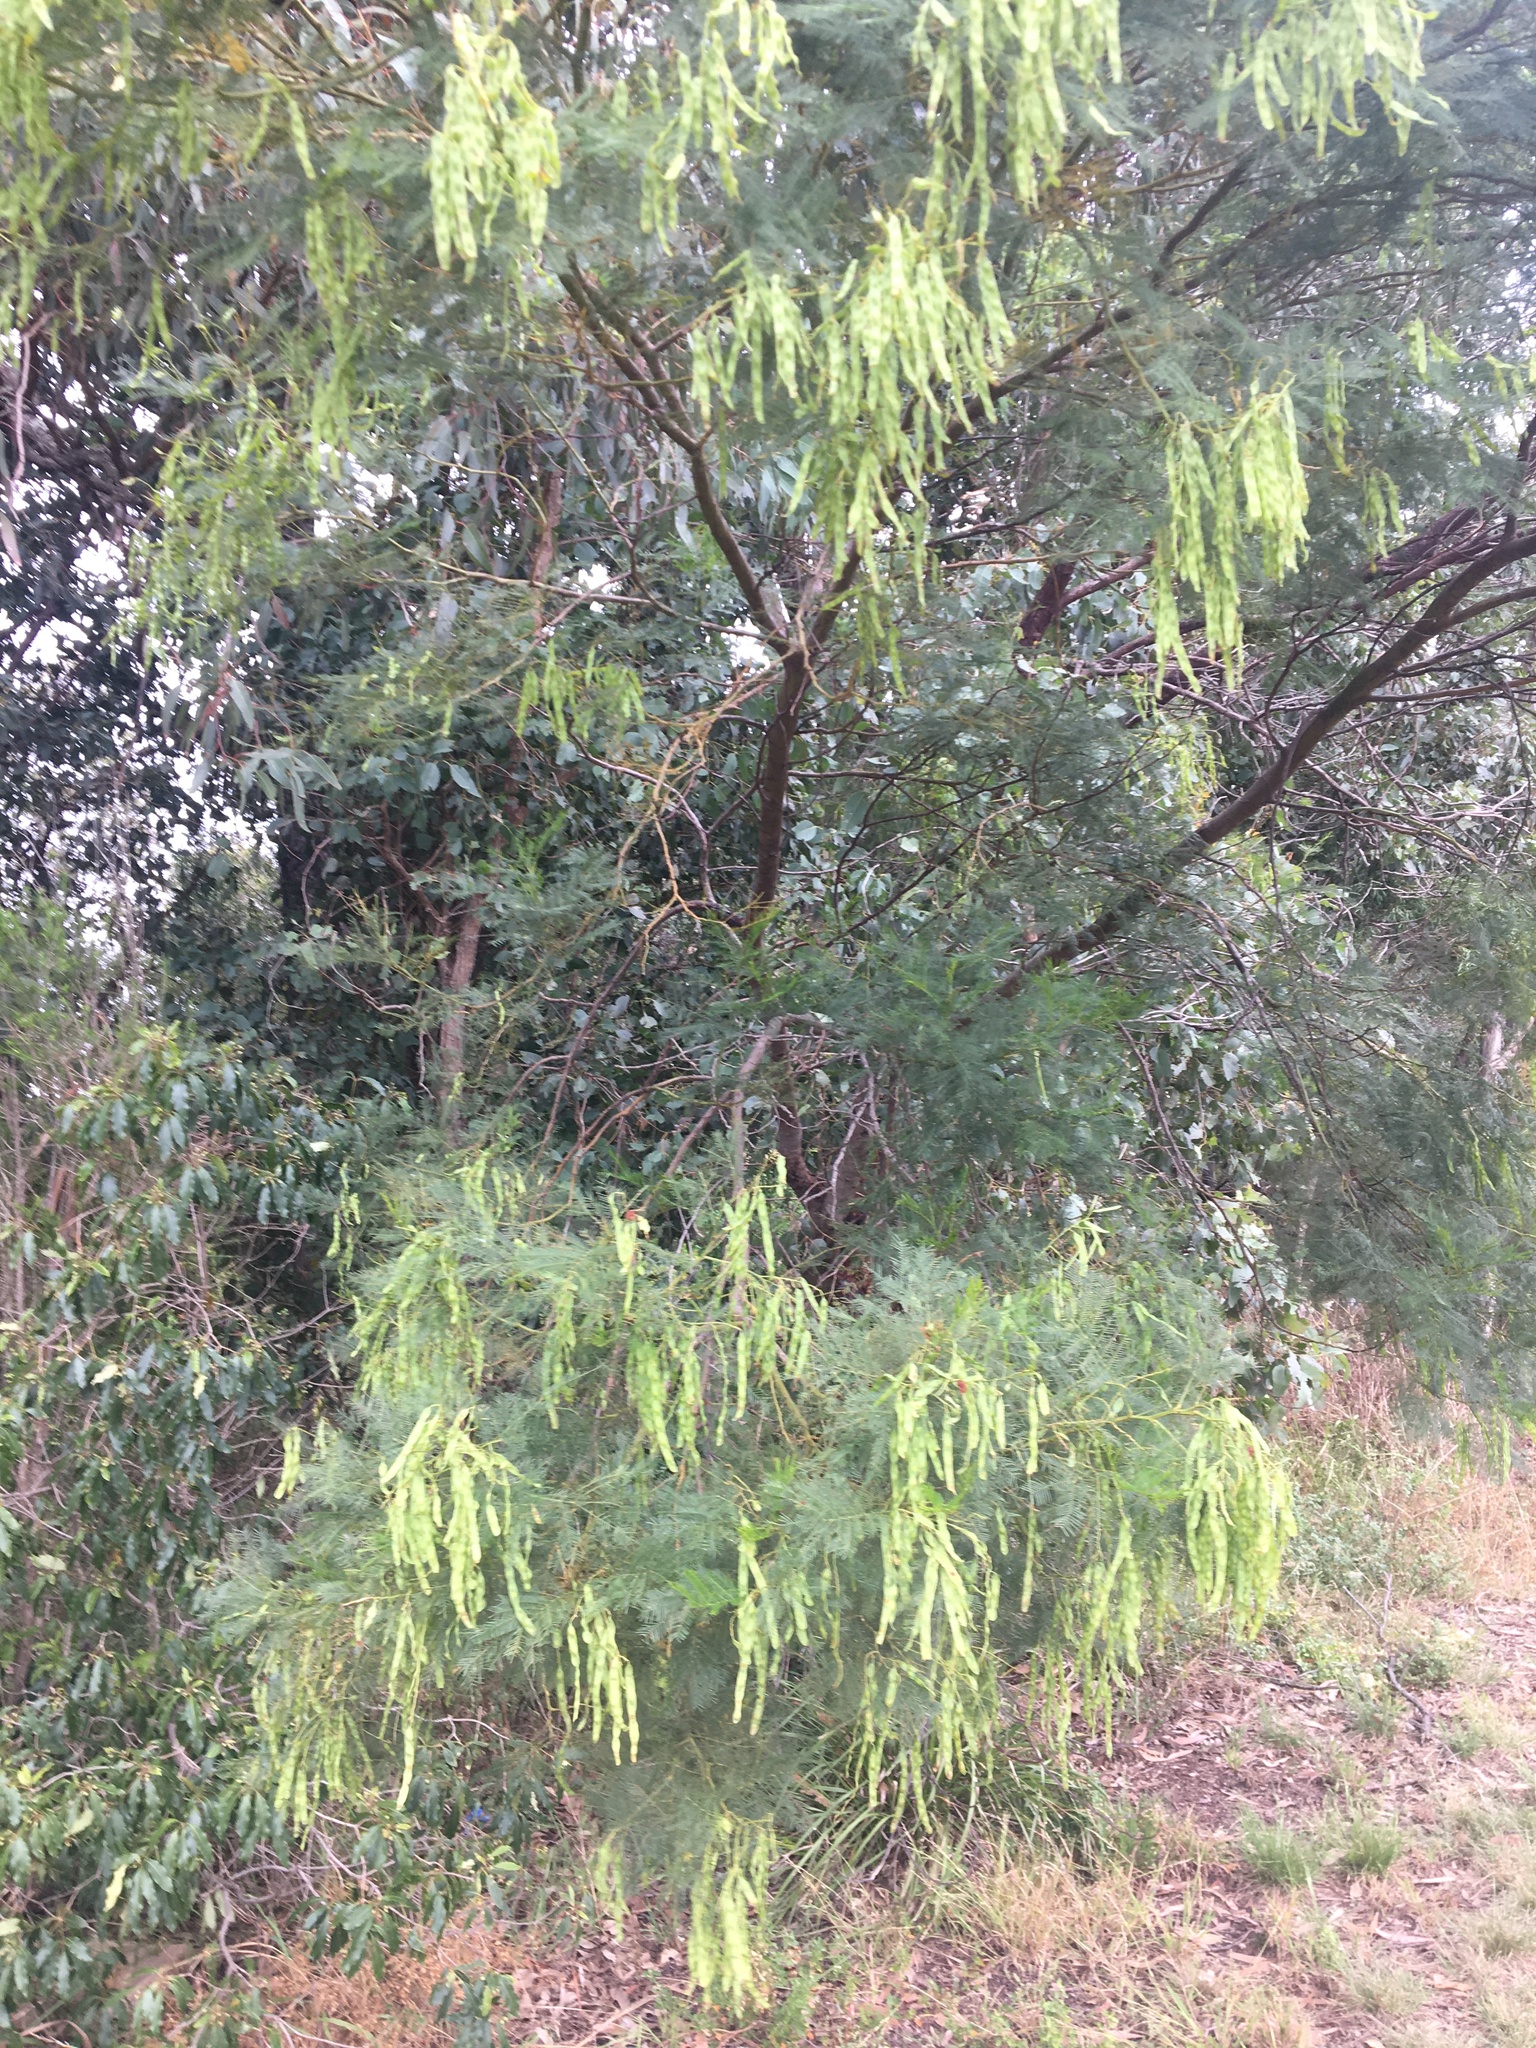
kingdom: Plantae
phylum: Tracheophyta
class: Magnoliopsida
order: Fabales
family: Fabaceae
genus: Acacia
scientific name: Acacia decurrens
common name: Green wattle
